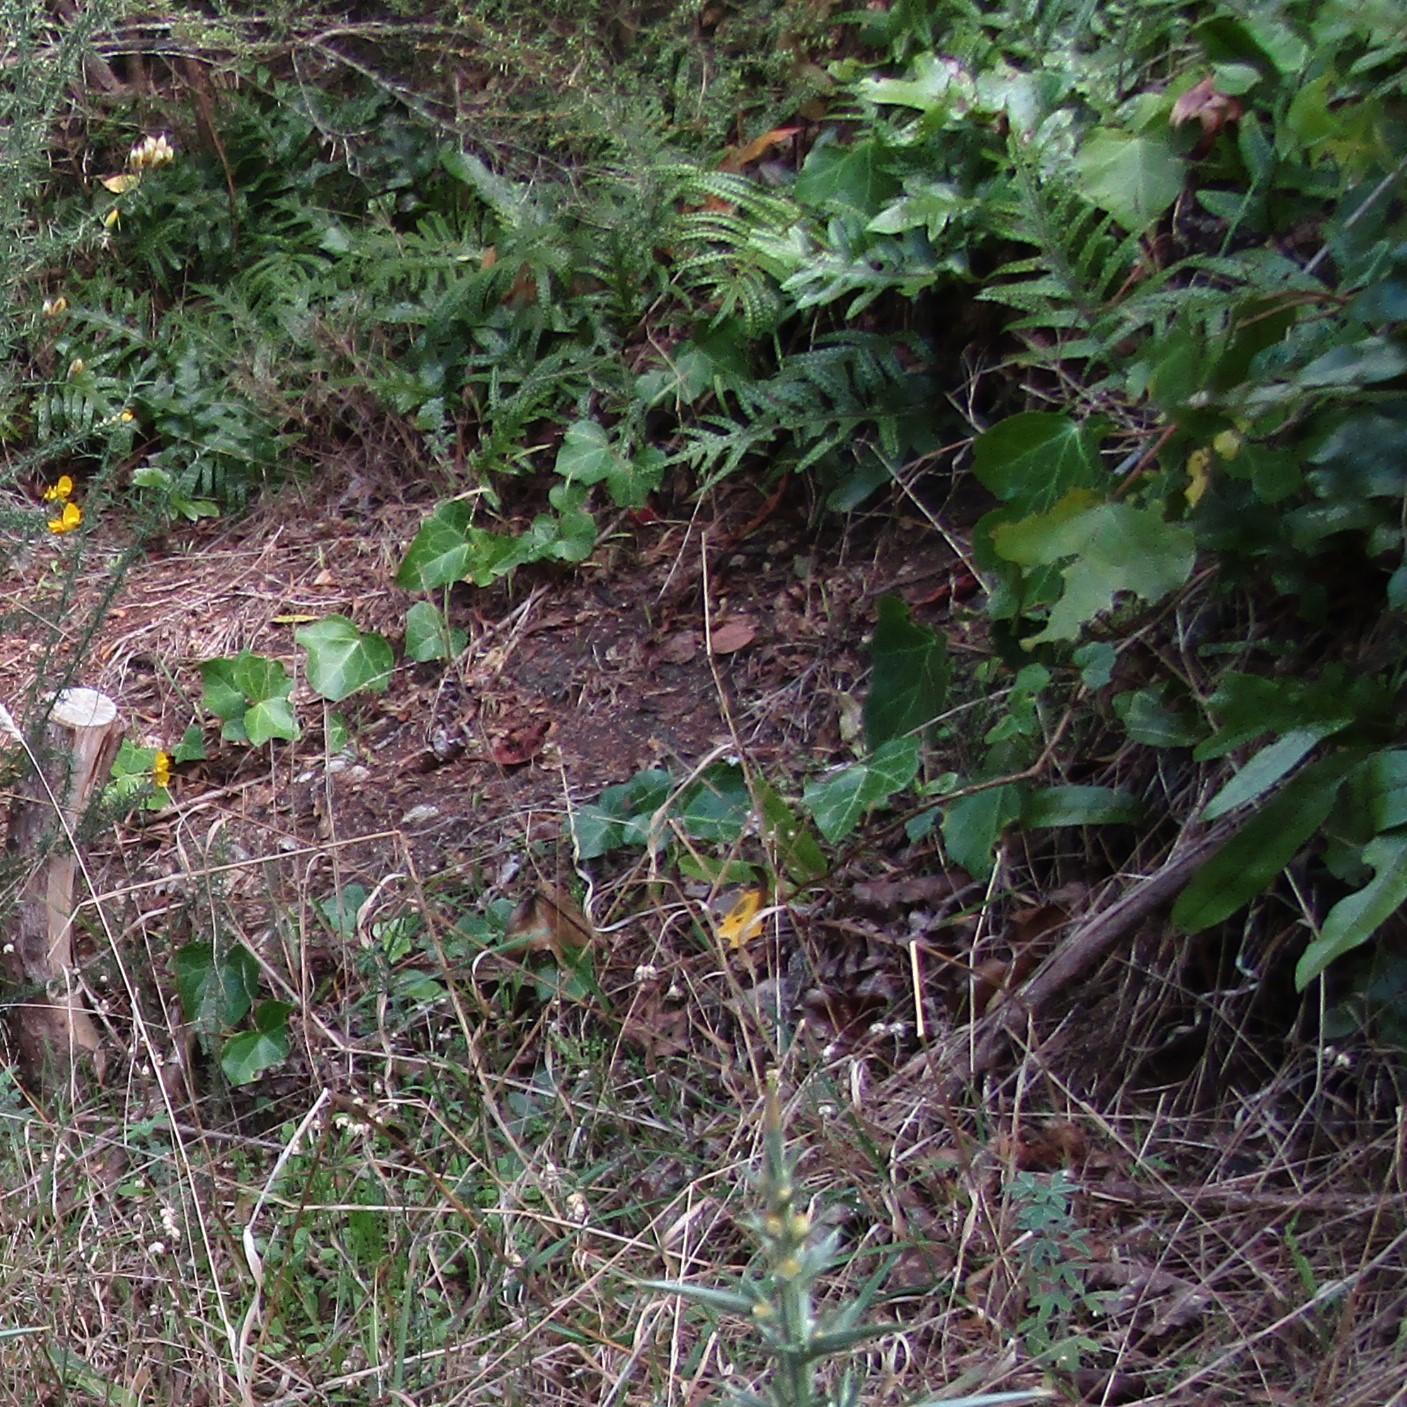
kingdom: Plantae
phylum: Tracheophyta
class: Magnoliopsida
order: Apiales
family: Araliaceae
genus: Hedera
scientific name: Hedera
